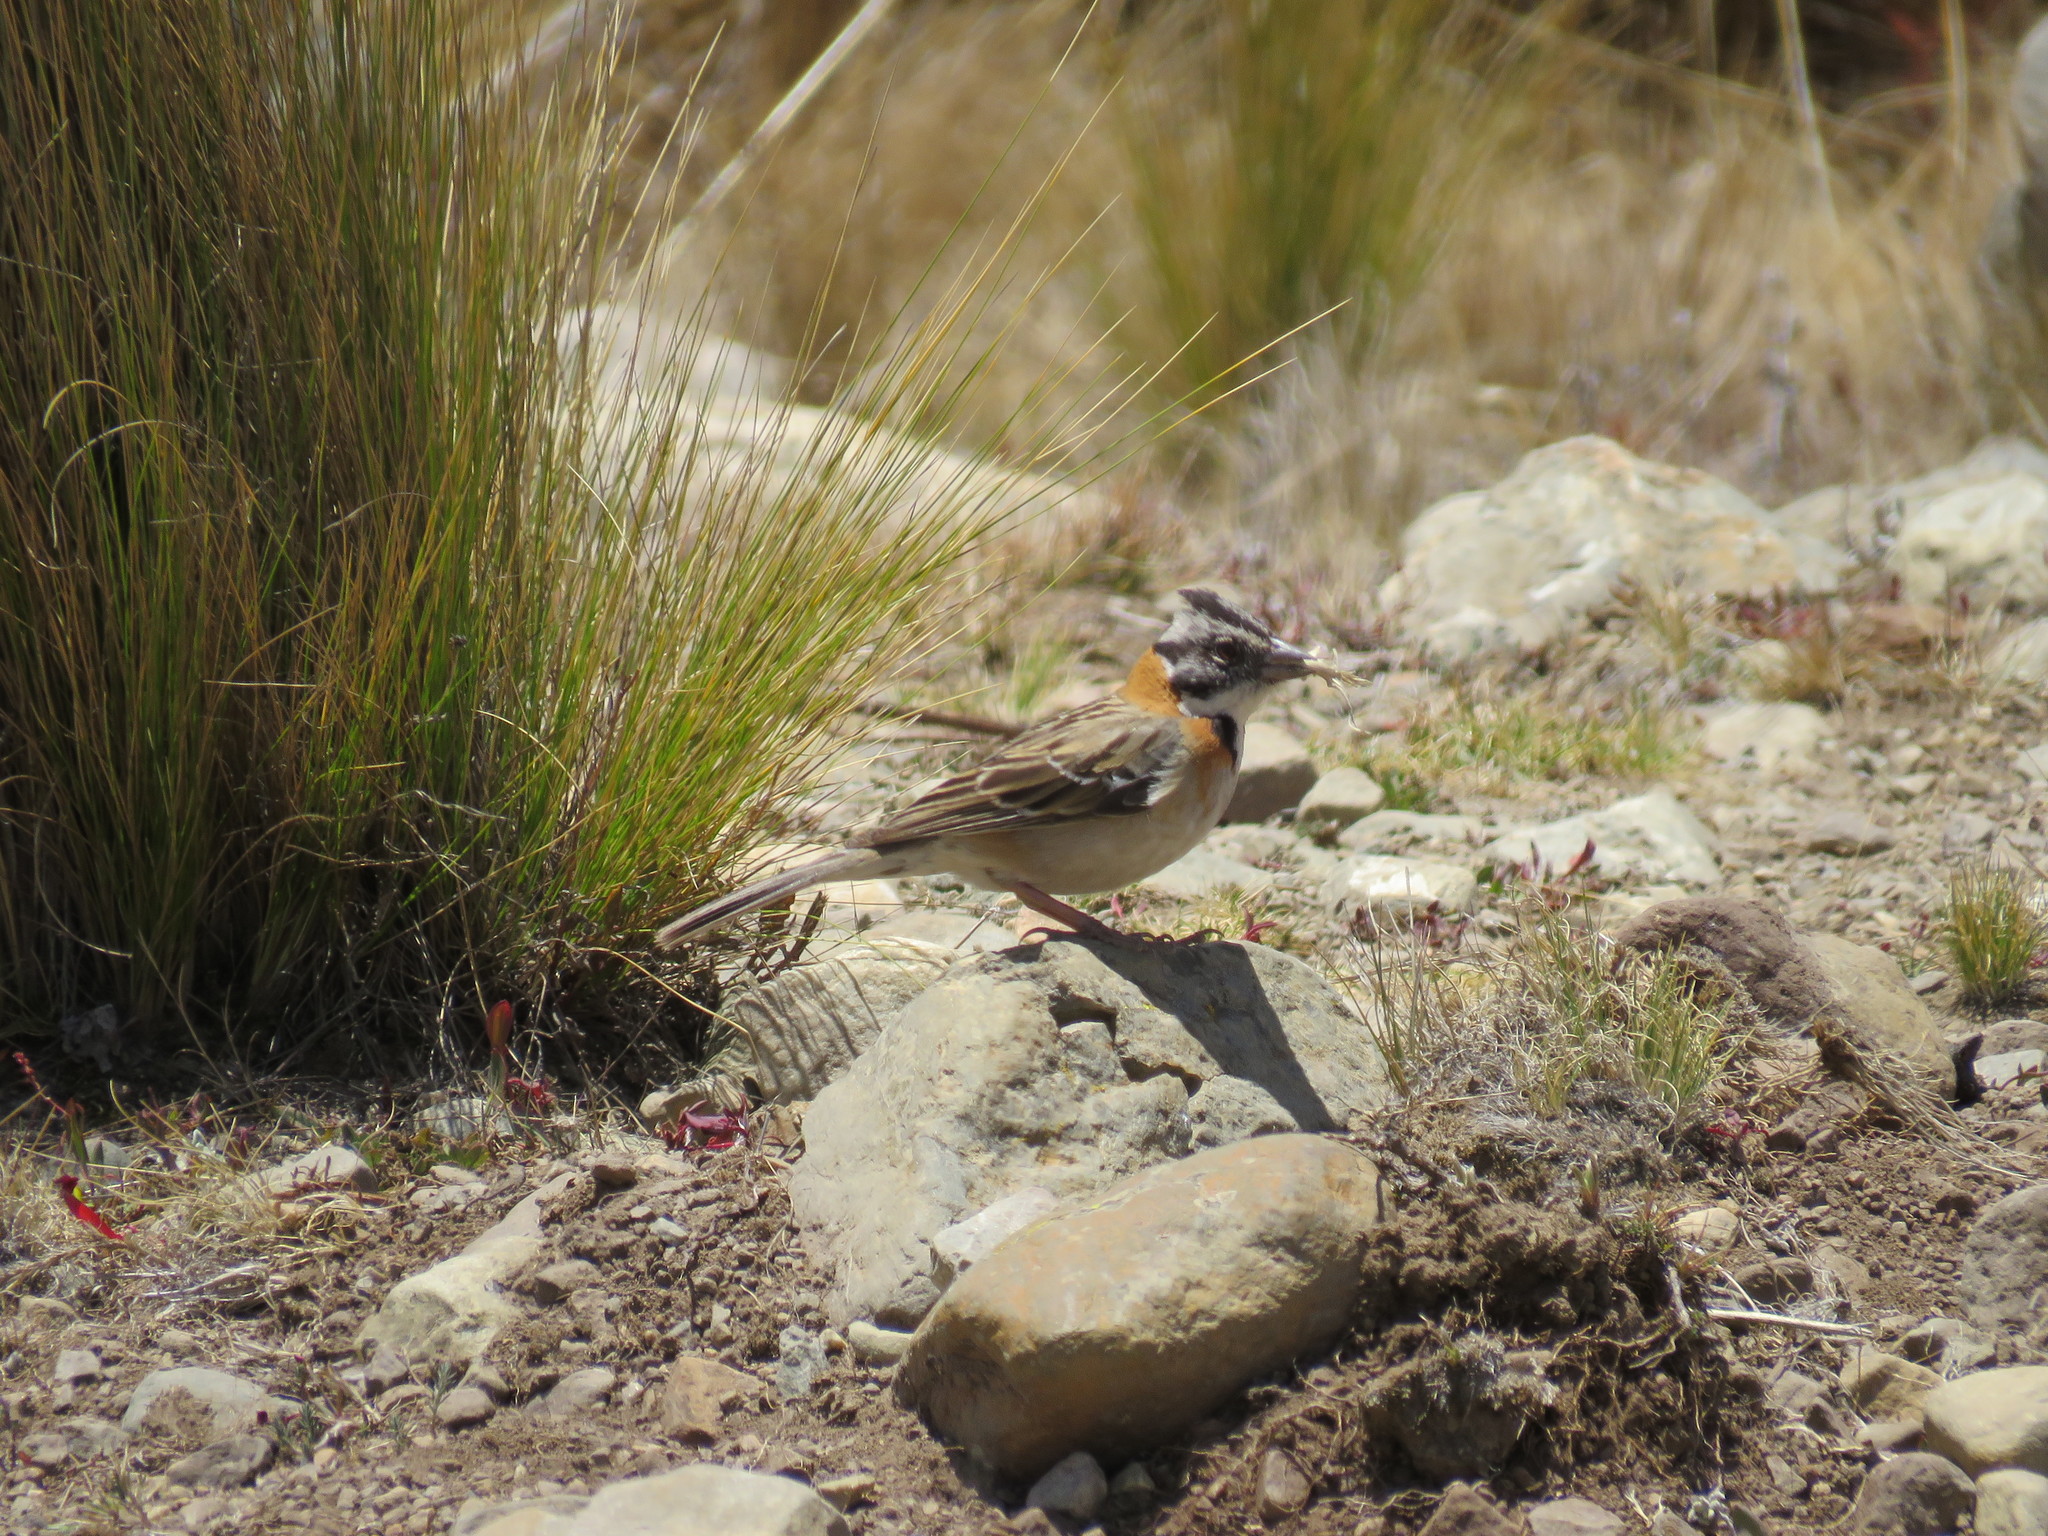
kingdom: Animalia
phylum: Chordata
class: Aves
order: Passeriformes
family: Passerellidae
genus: Zonotrichia
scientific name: Zonotrichia capensis
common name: Rufous-collared sparrow
